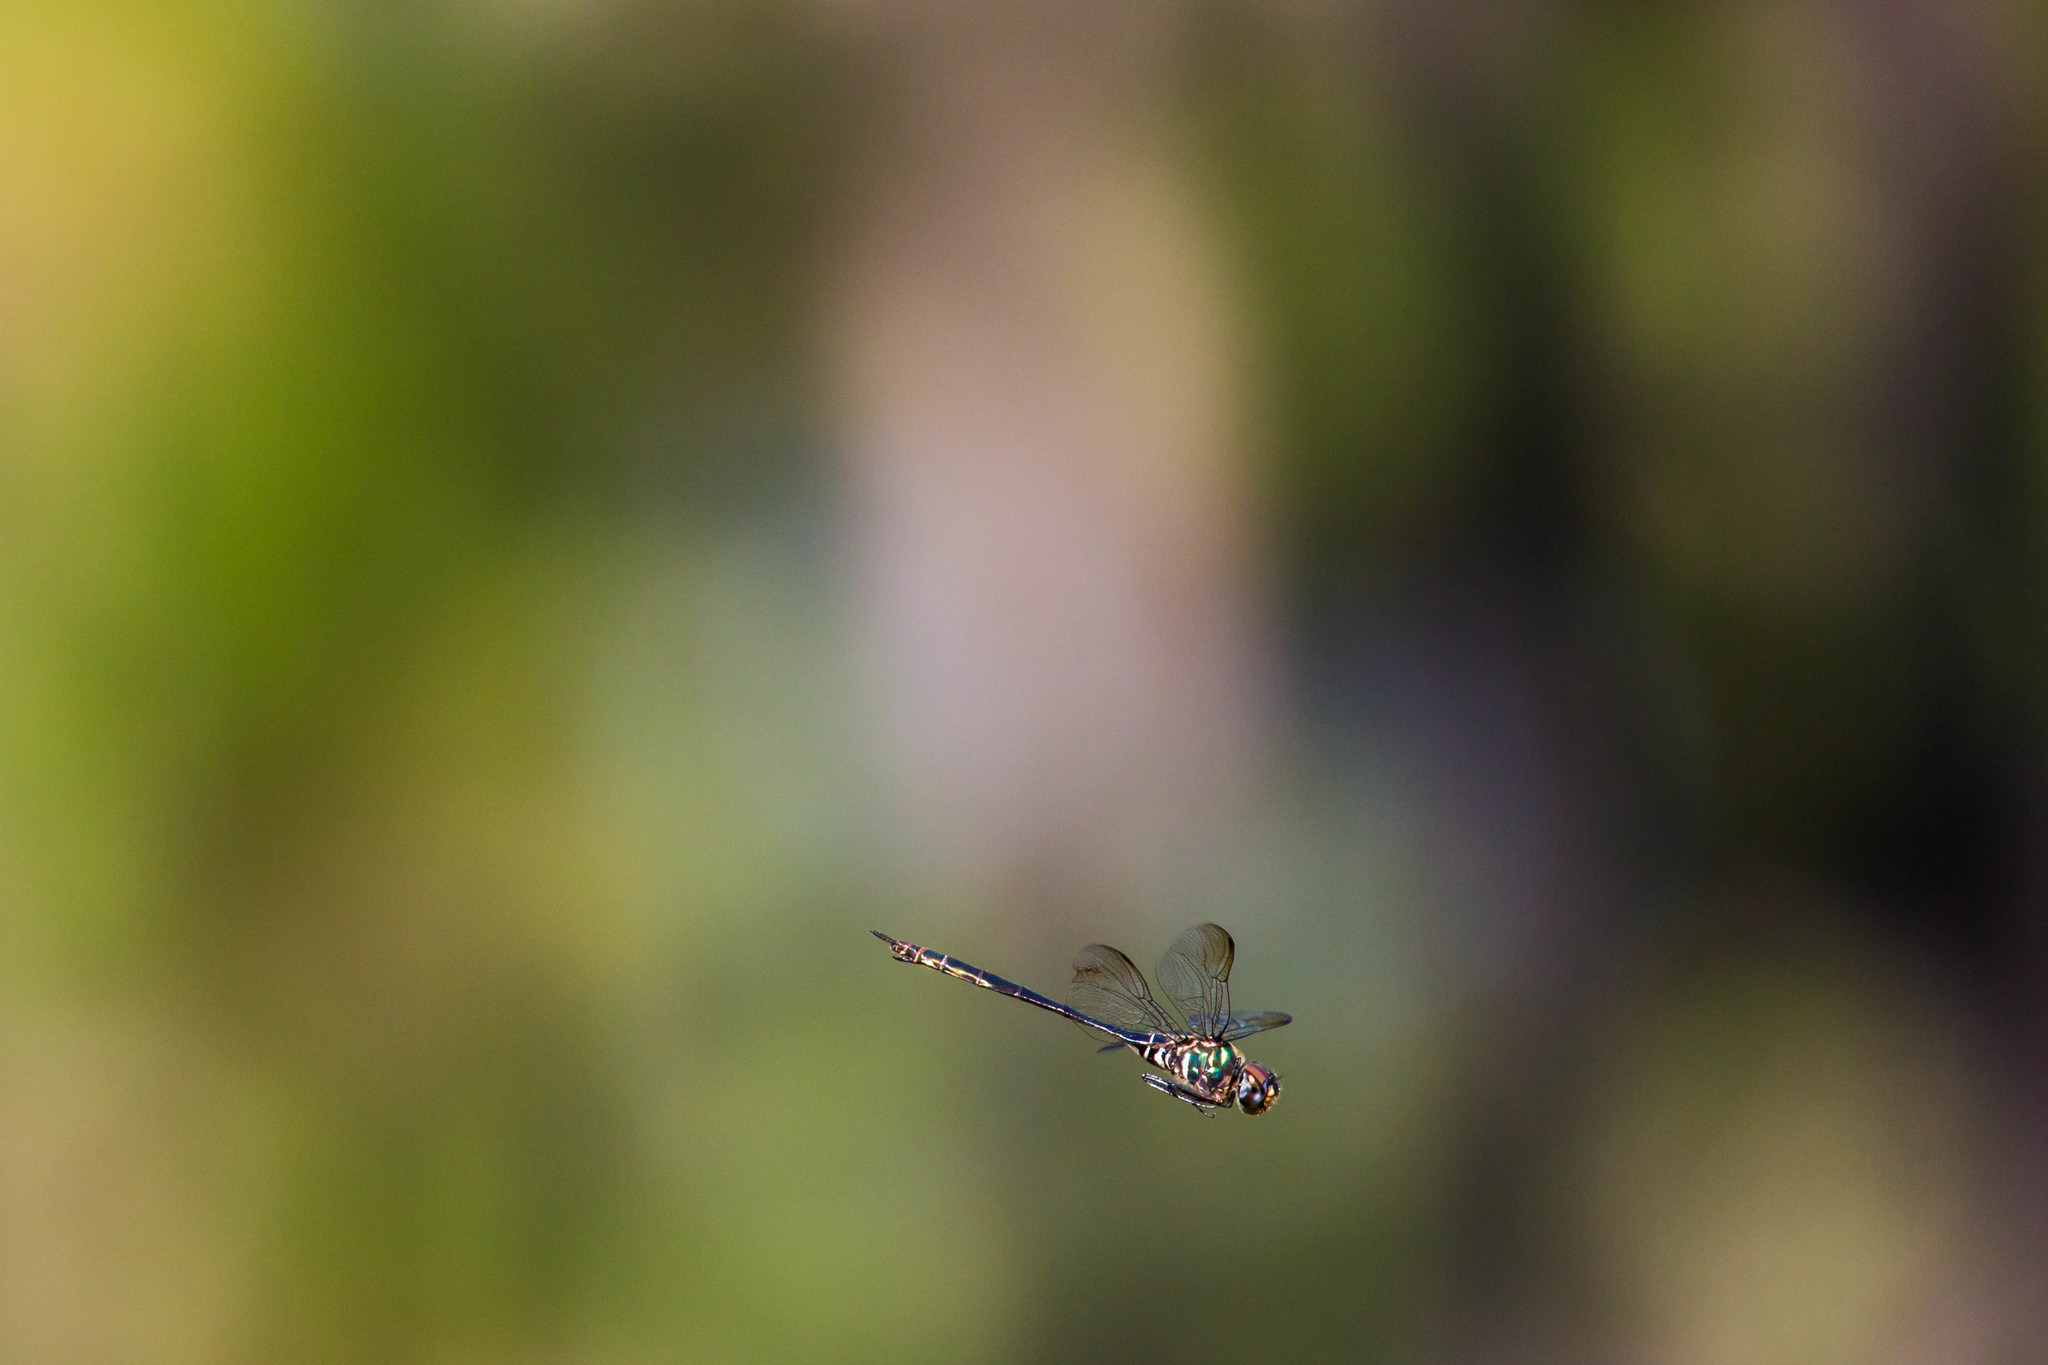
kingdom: Animalia
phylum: Arthropoda
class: Insecta
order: Odonata
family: Corduliidae
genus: Somatochlora
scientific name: Somatochlora filosa
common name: Fine-lined emerald
